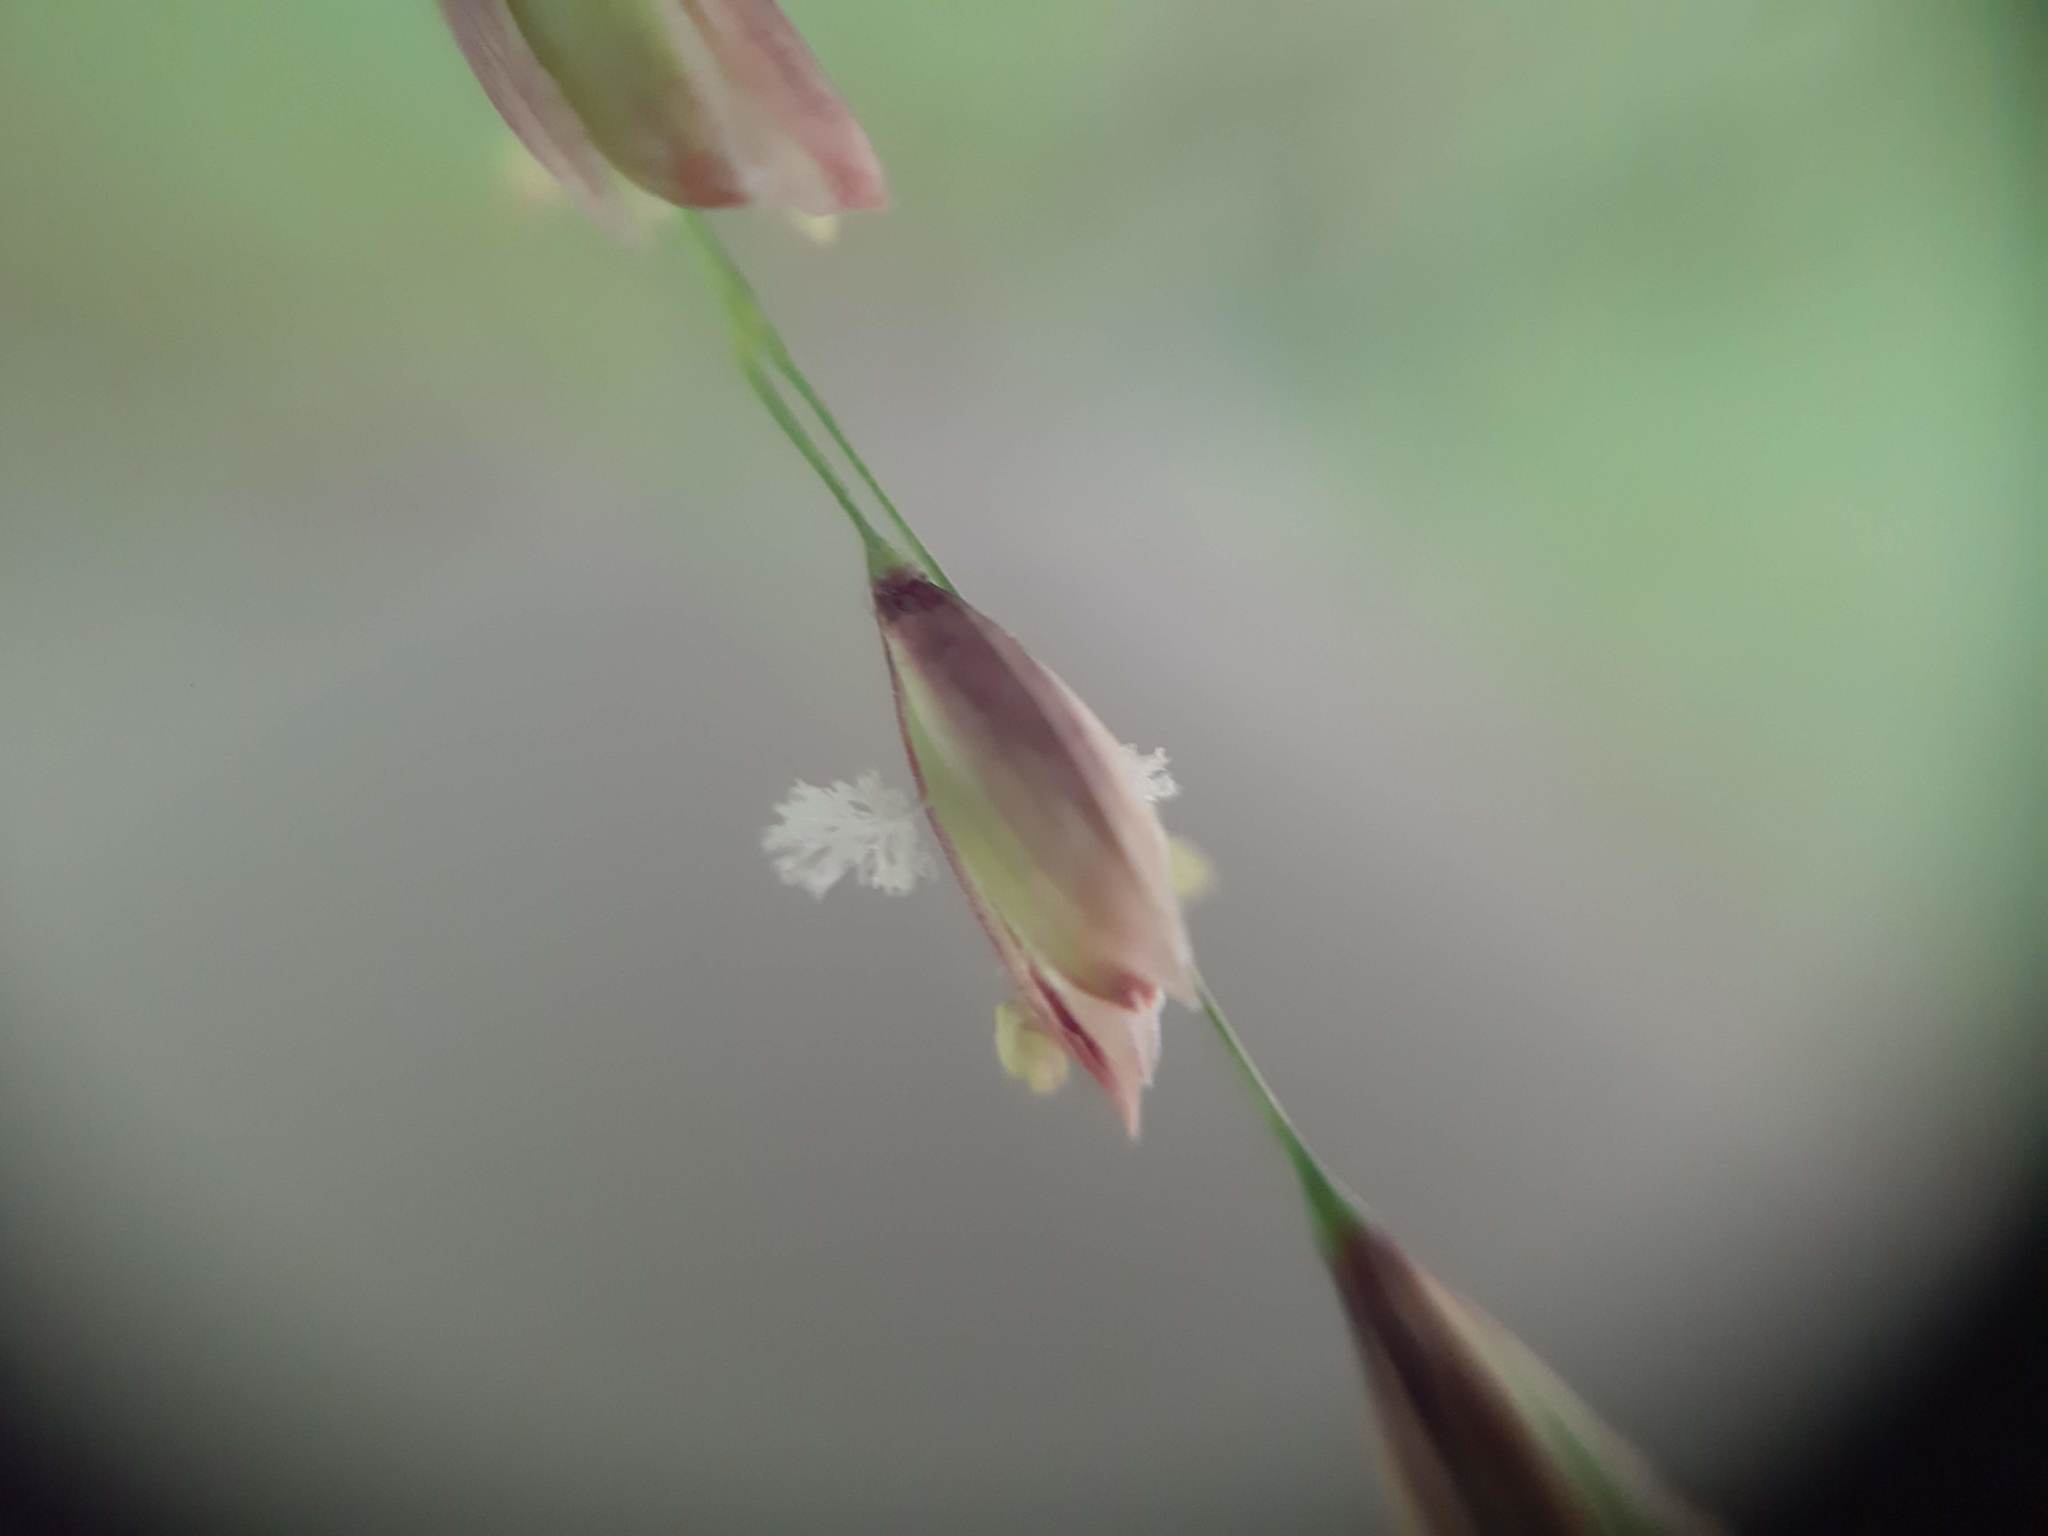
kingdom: Plantae
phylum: Tracheophyta
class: Liliopsida
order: Poales
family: Poaceae
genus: Melica
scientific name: Melica uniflora
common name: Wood melick
